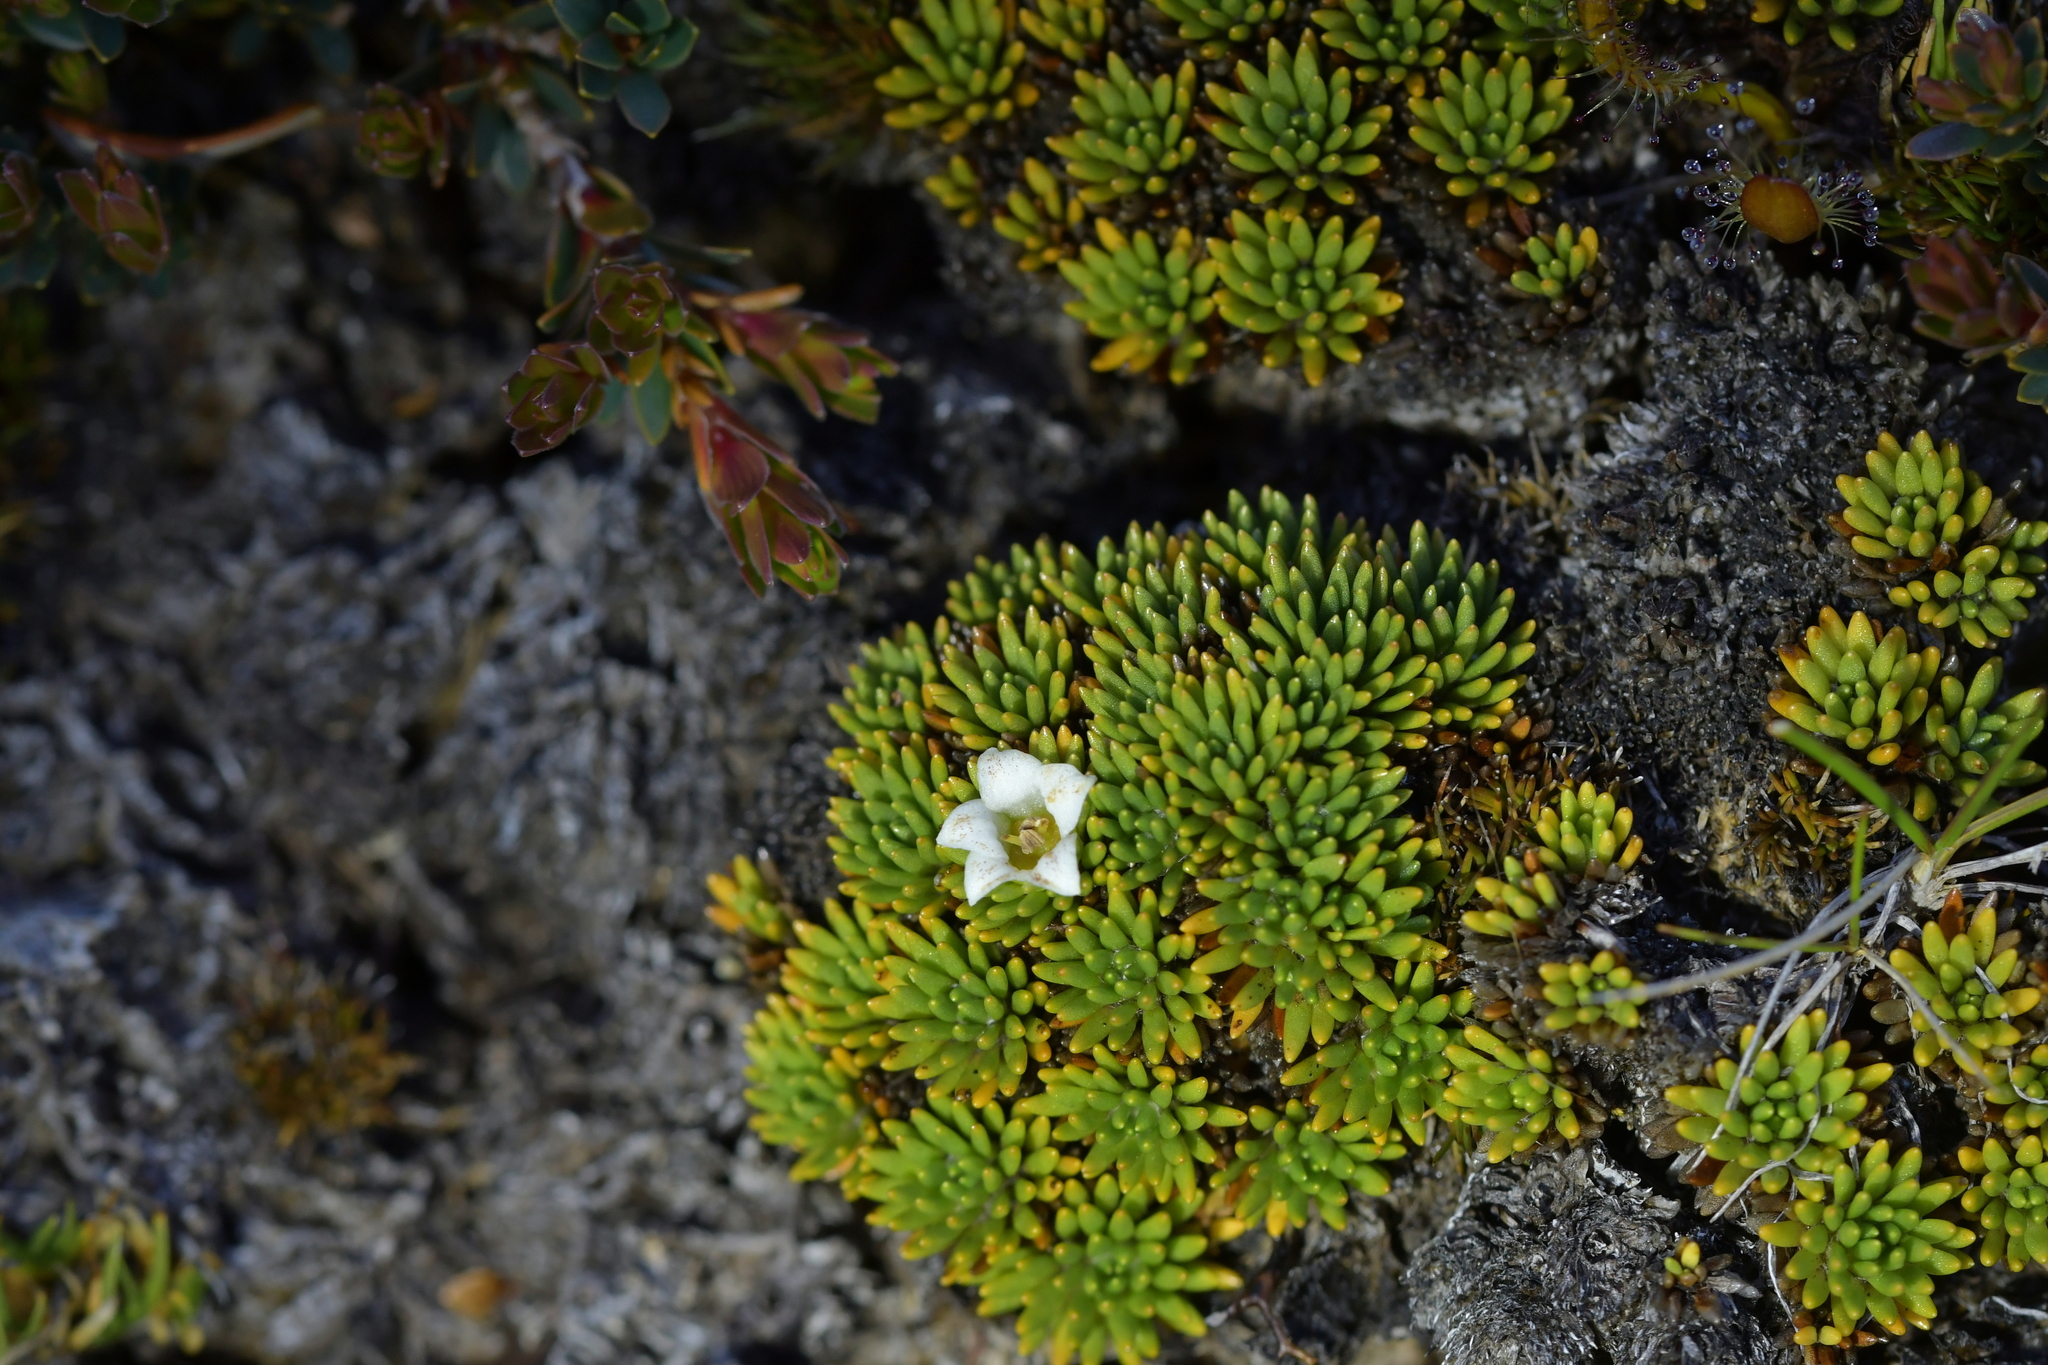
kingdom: Plantae
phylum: Tracheophyta
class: Magnoliopsida
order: Asterales
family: Stylidiaceae
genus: Donatia
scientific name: Donatia novae-zelandiae
